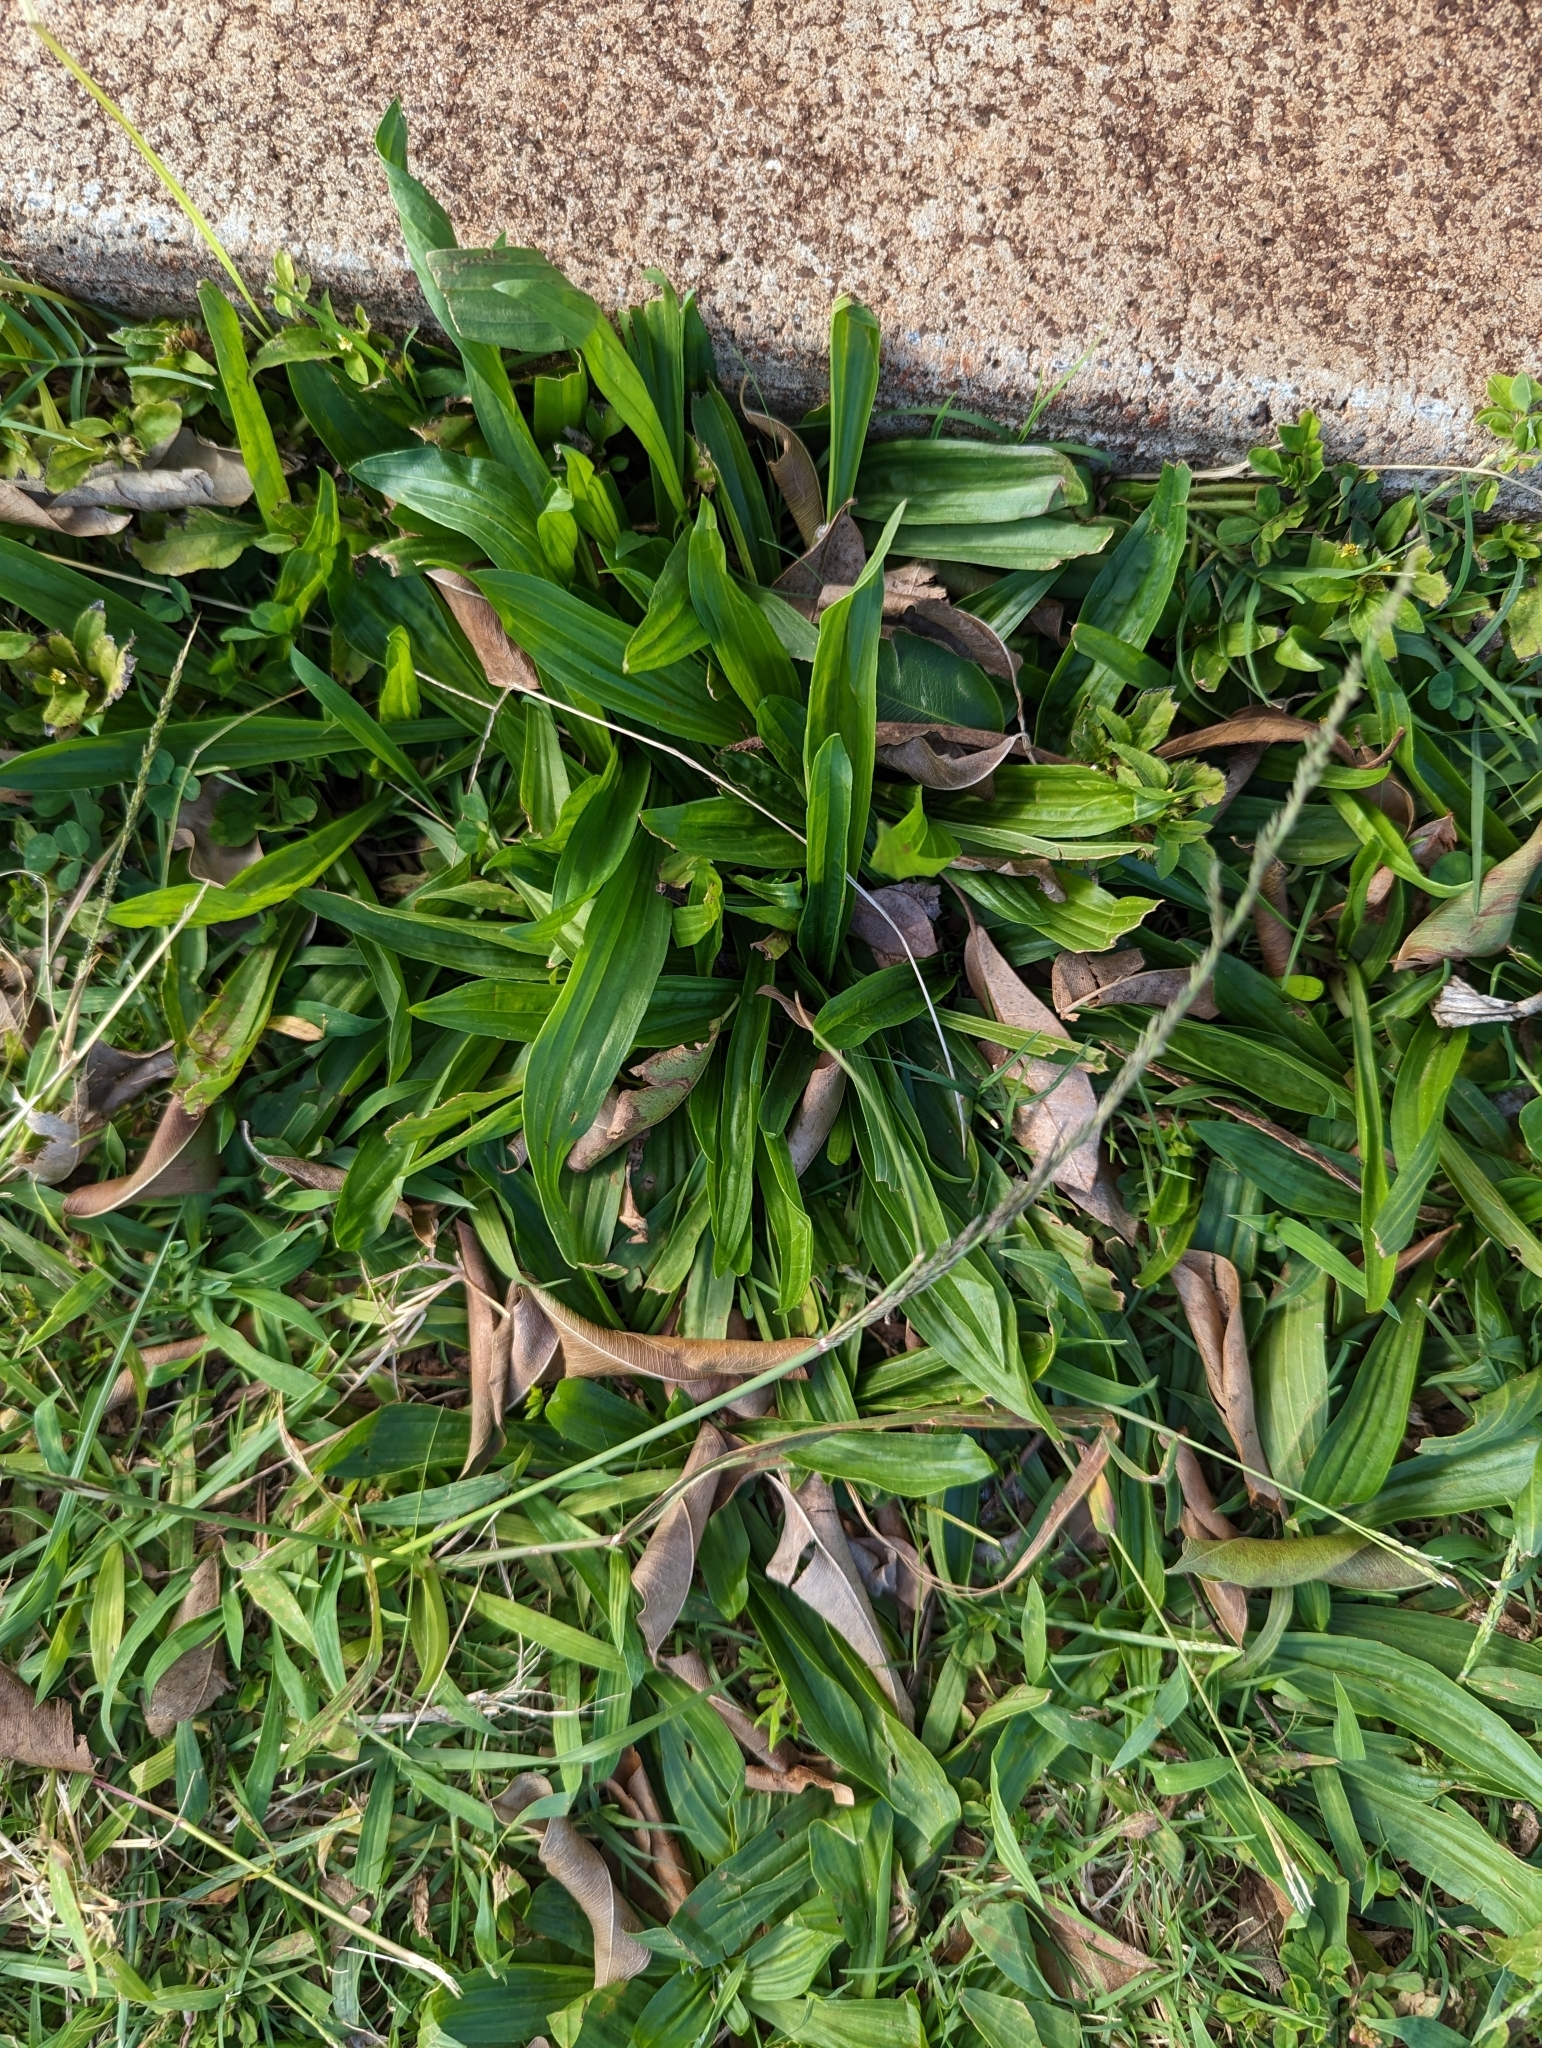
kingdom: Plantae
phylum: Tracheophyta
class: Magnoliopsida
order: Lamiales
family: Plantaginaceae
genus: Plantago
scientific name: Plantago lanceolata
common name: Ribwort plantain
